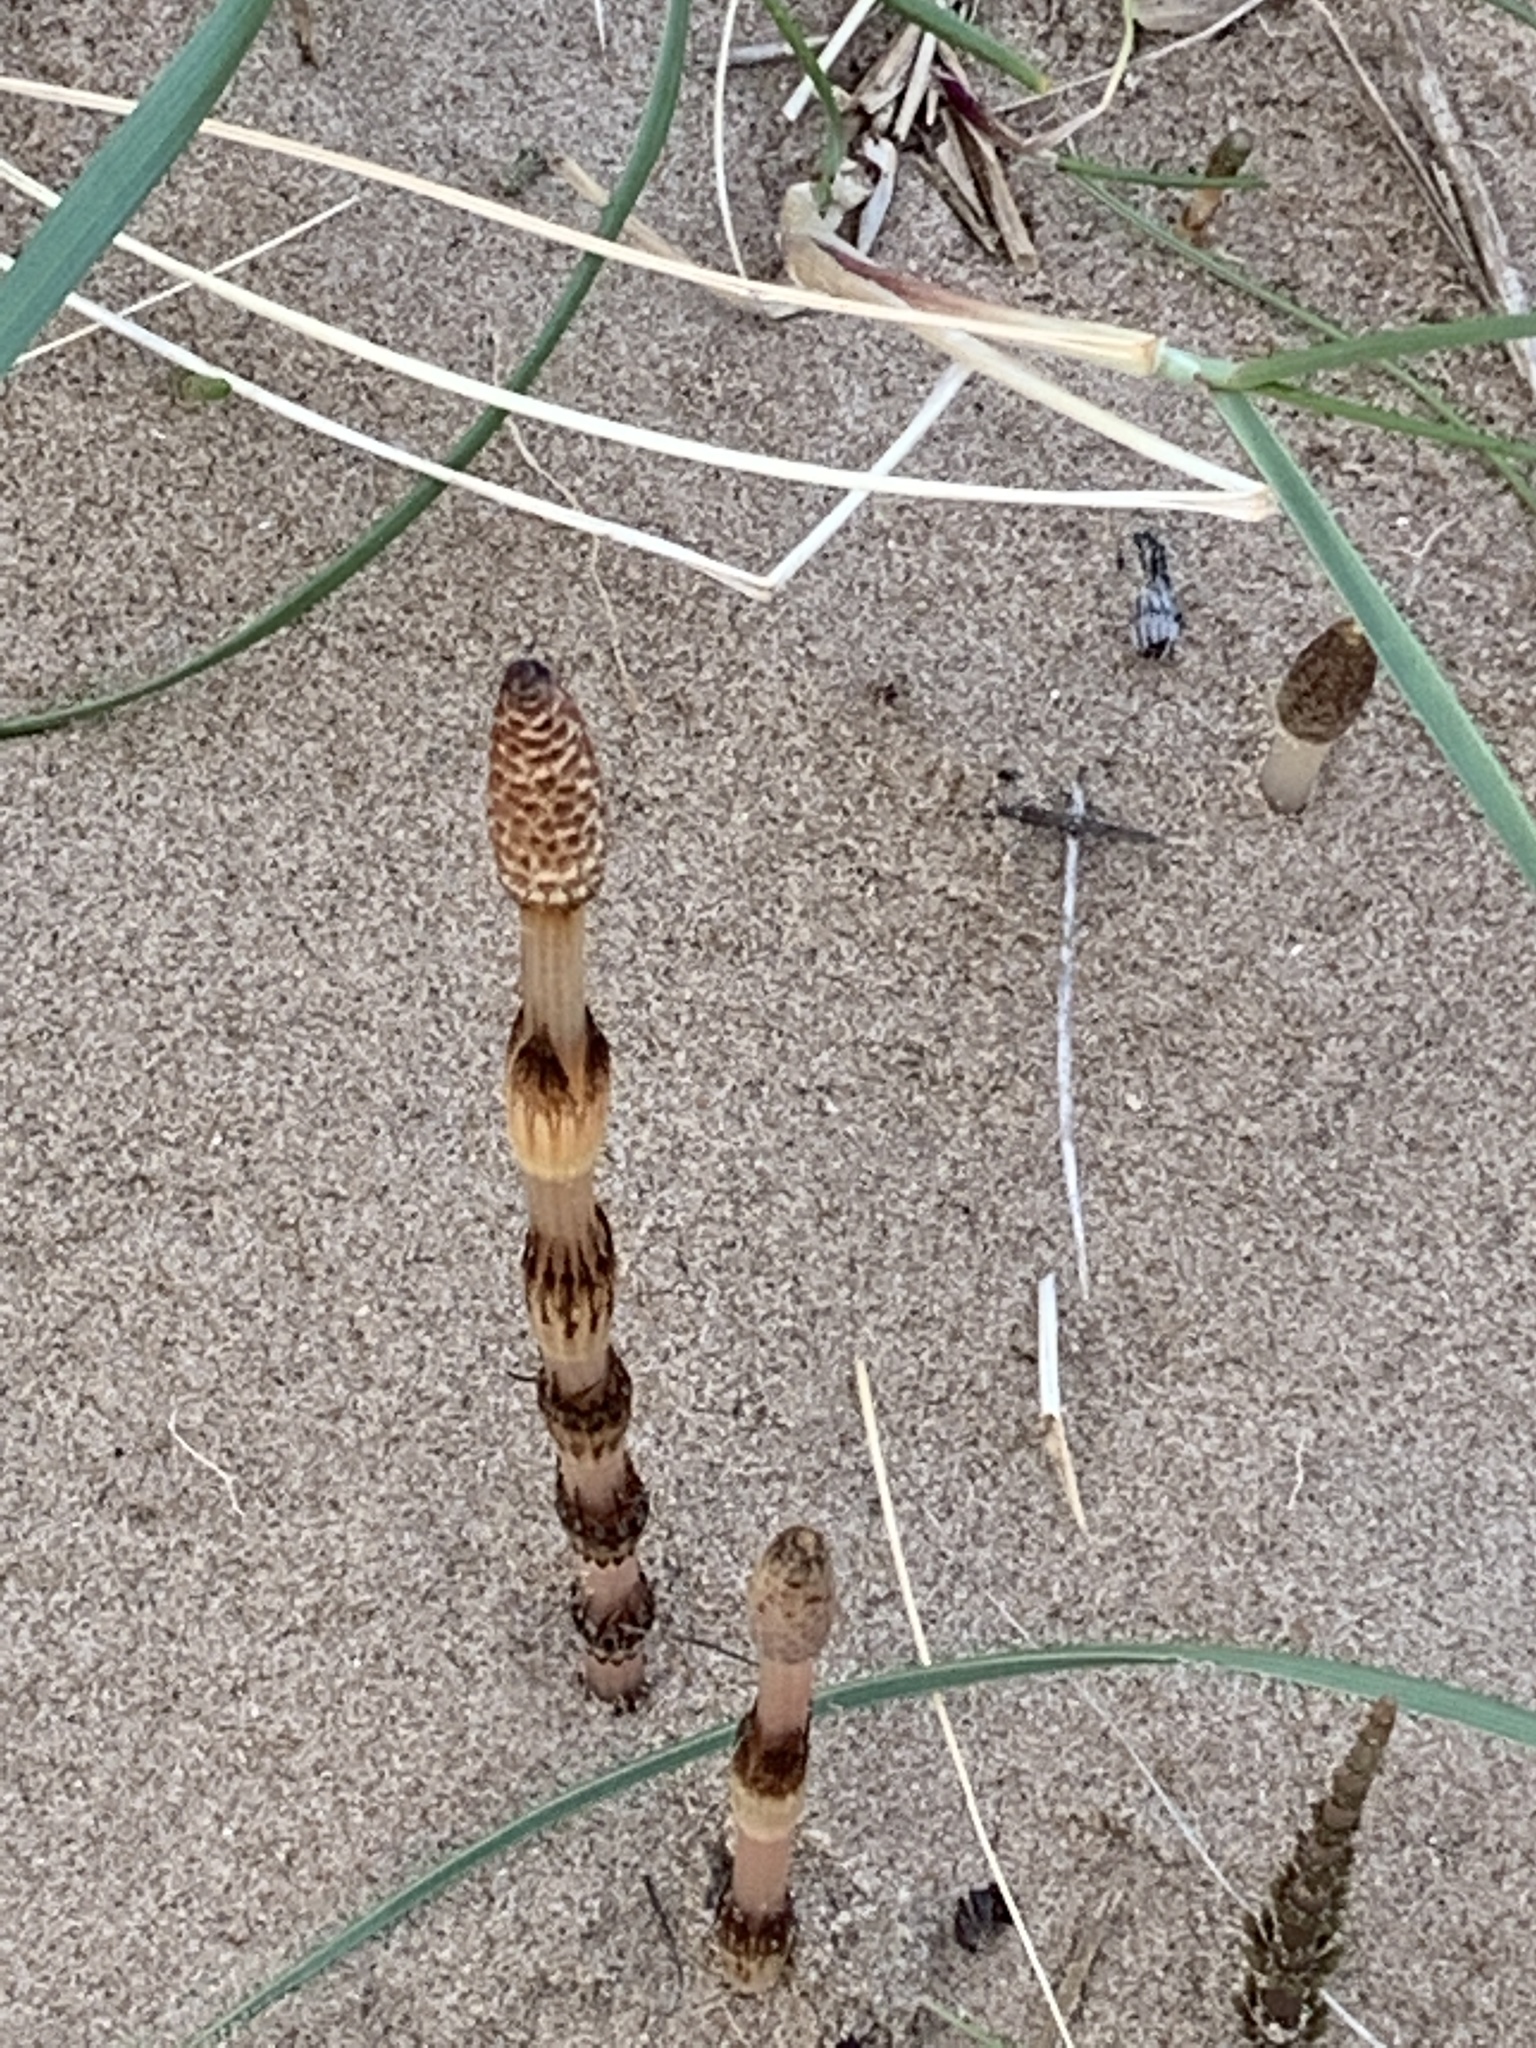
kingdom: Plantae
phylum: Tracheophyta
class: Polypodiopsida
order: Equisetales
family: Equisetaceae
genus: Equisetum
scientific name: Equisetum arvense
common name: Field horsetail
